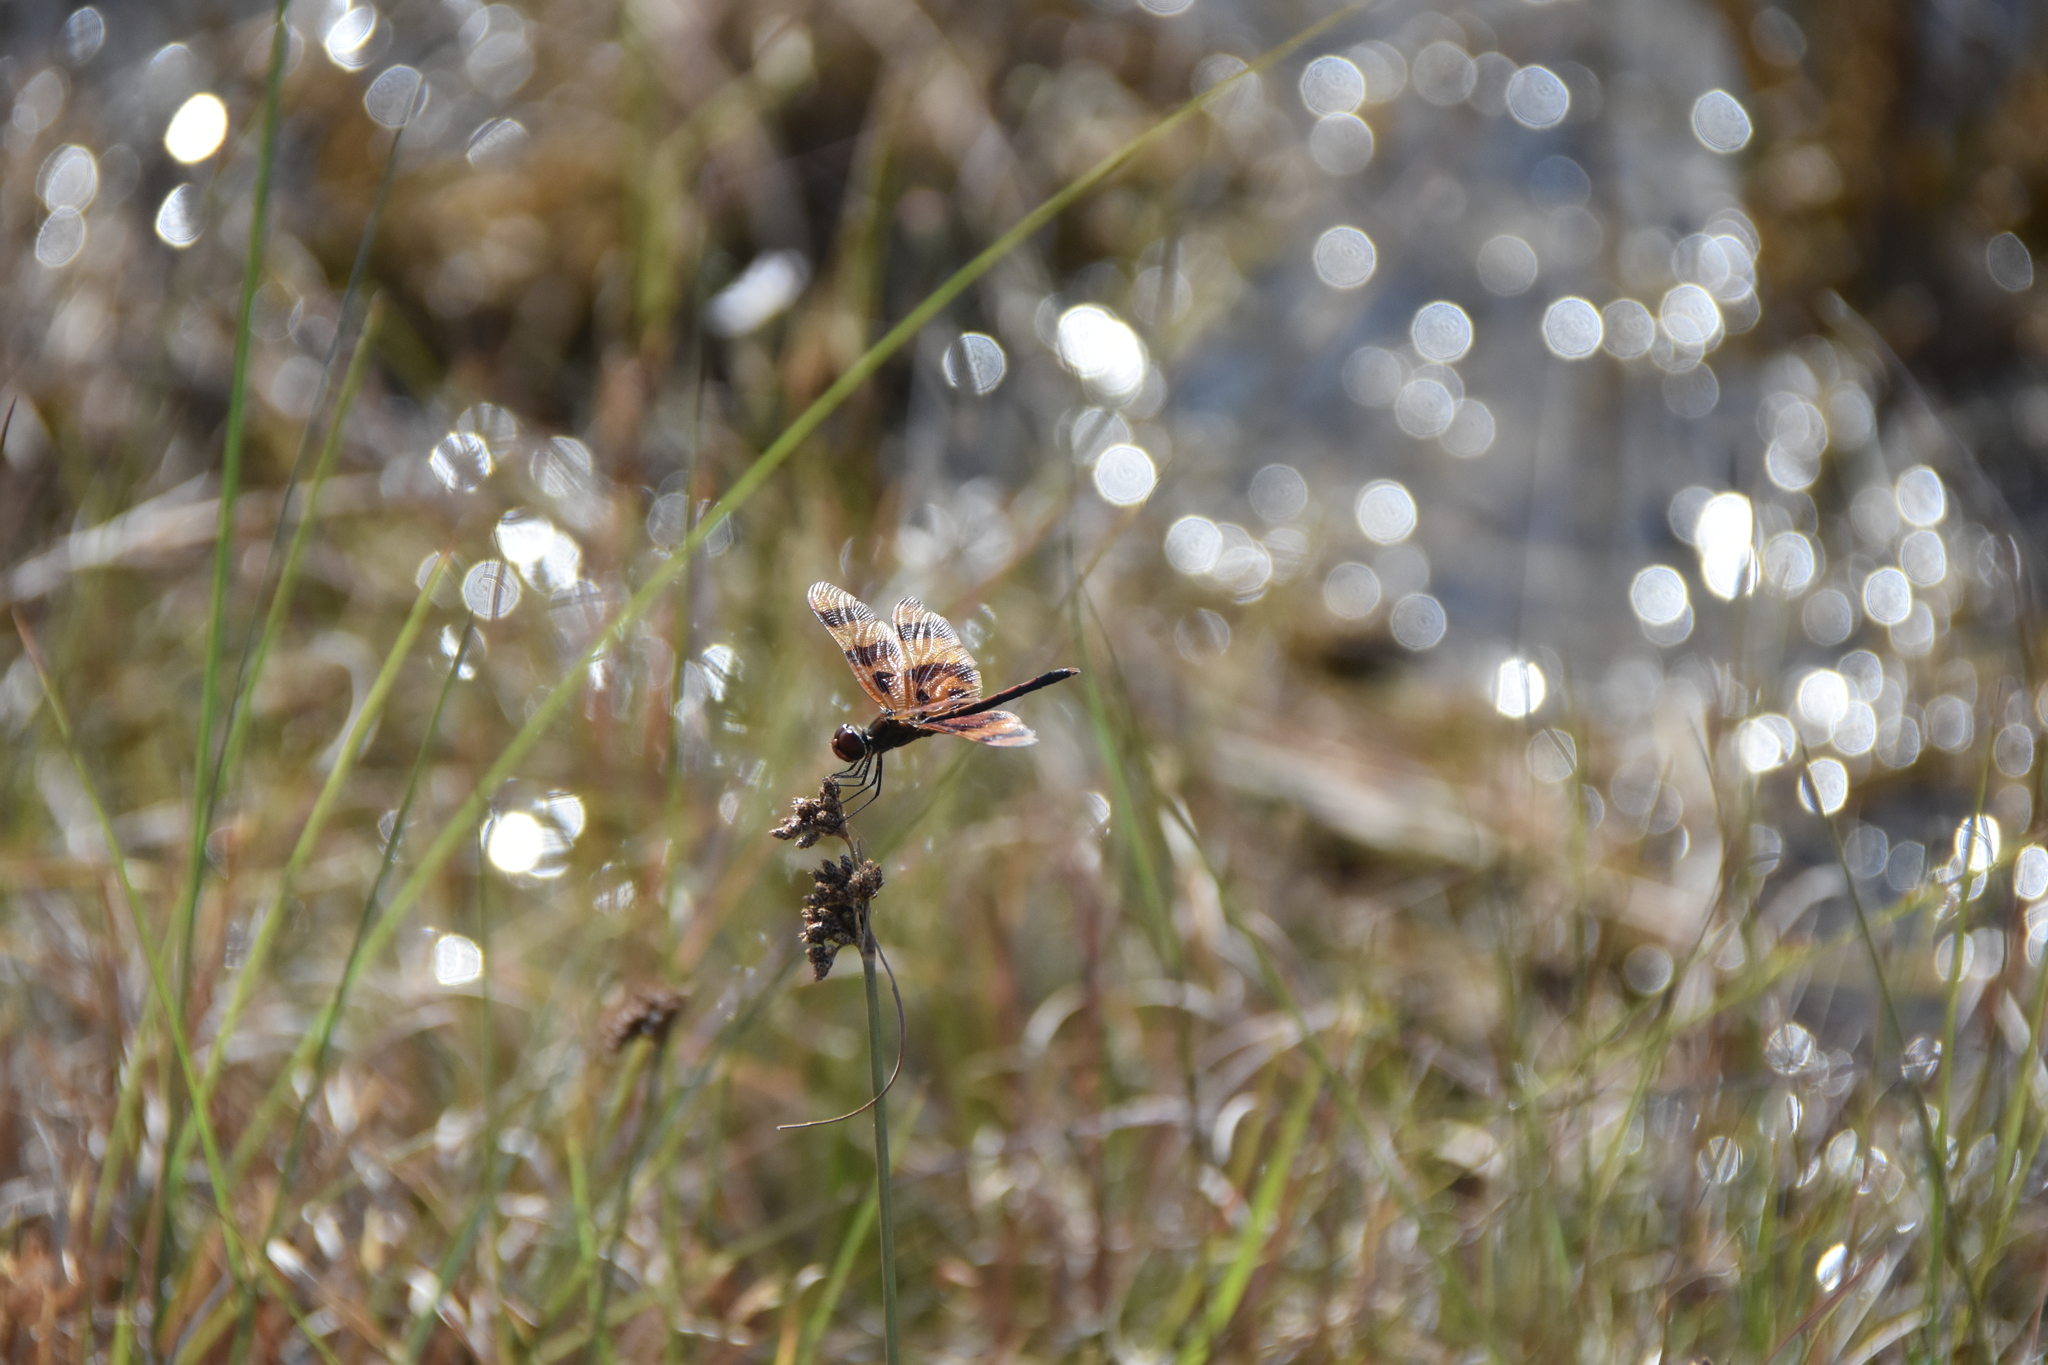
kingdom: Animalia
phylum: Arthropoda
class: Insecta
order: Odonata
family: Libellulidae
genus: Celithemis
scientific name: Celithemis eponina
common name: Halloween pennant
